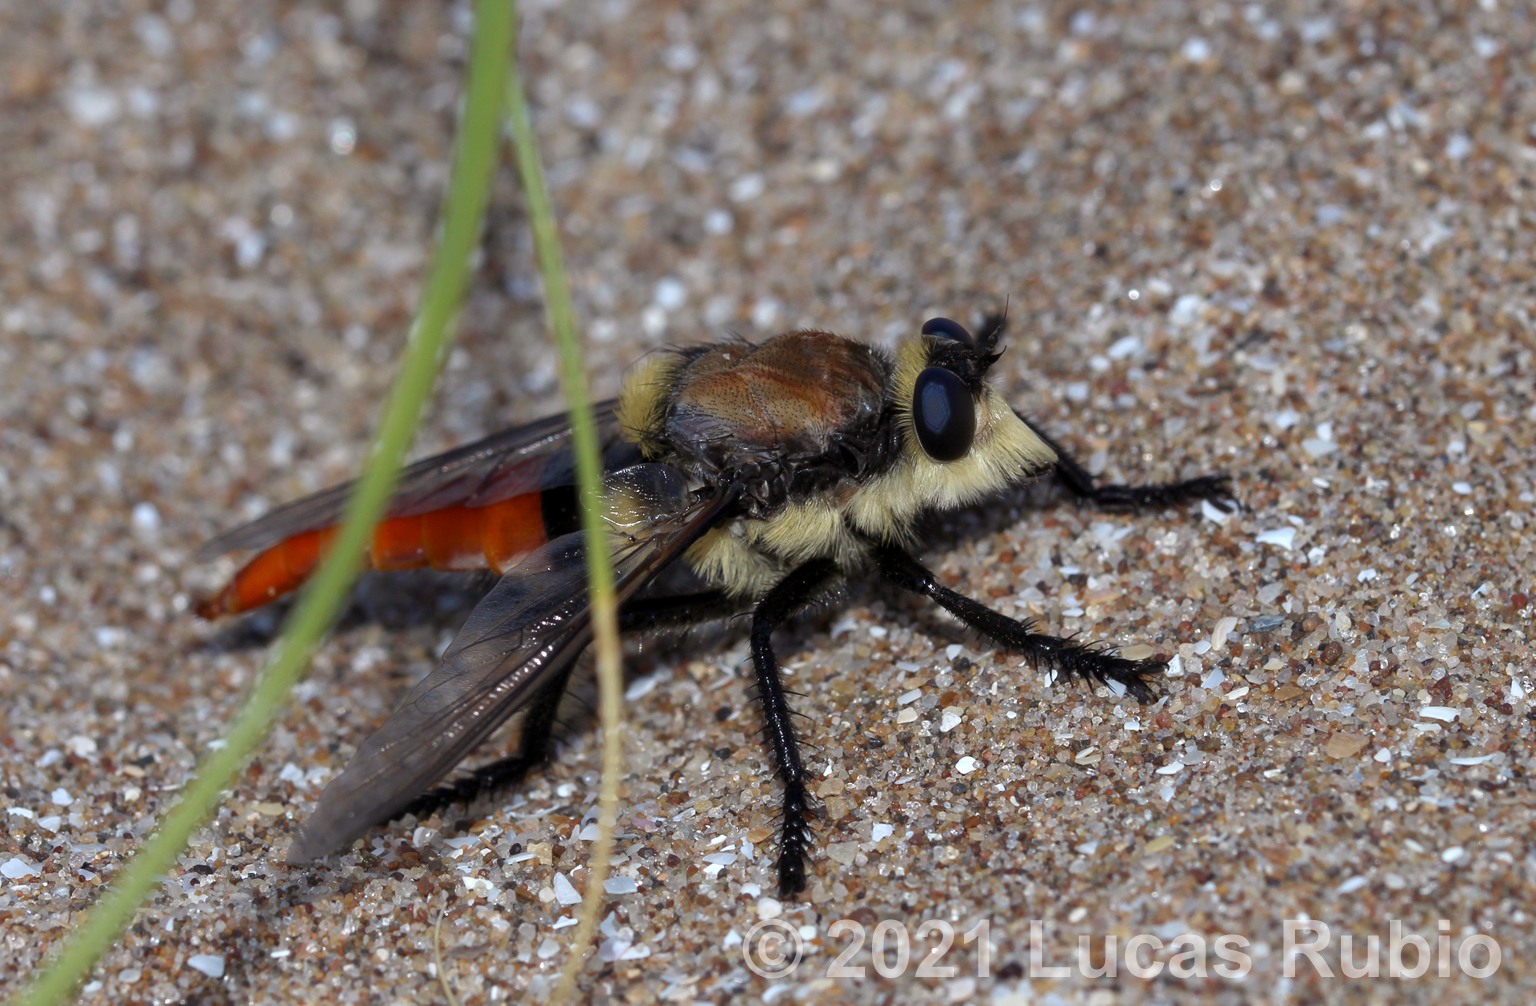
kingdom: Animalia
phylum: Arthropoda
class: Insecta
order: Diptera
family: Asilidae
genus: Eccritosia
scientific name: Eccritosia rubriventris
